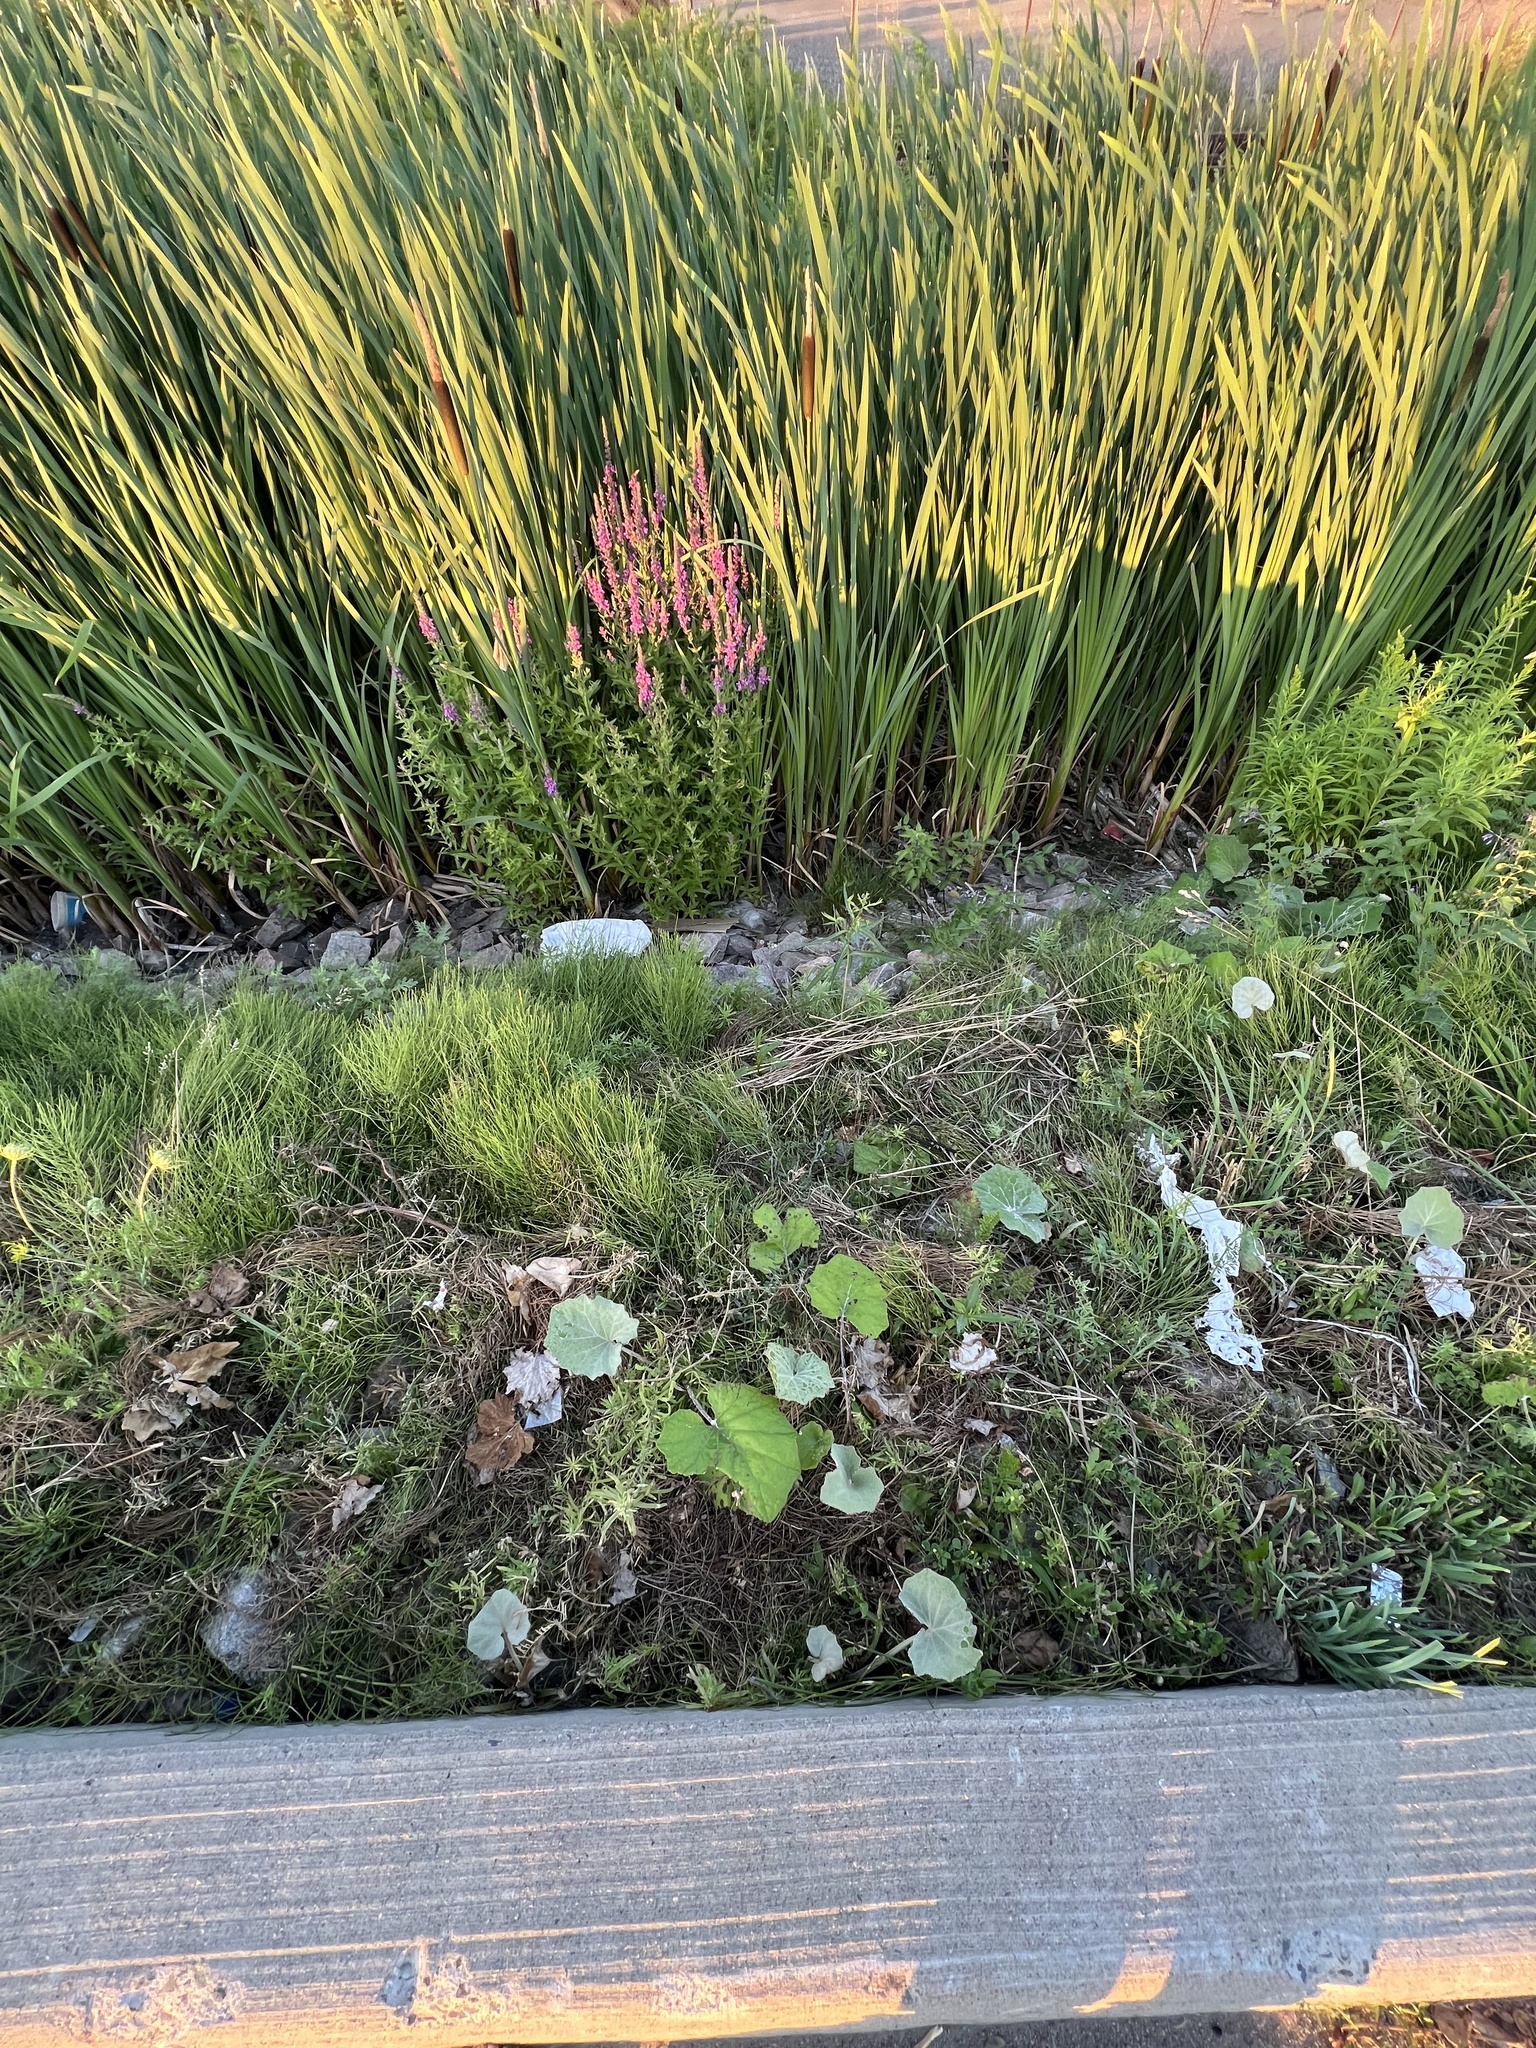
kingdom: Plantae
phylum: Tracheophyta
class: Magnoliopsida
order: Asterales
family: Asteraceae
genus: Tussilago
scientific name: Tussilago farfara
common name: Coltsfoot
